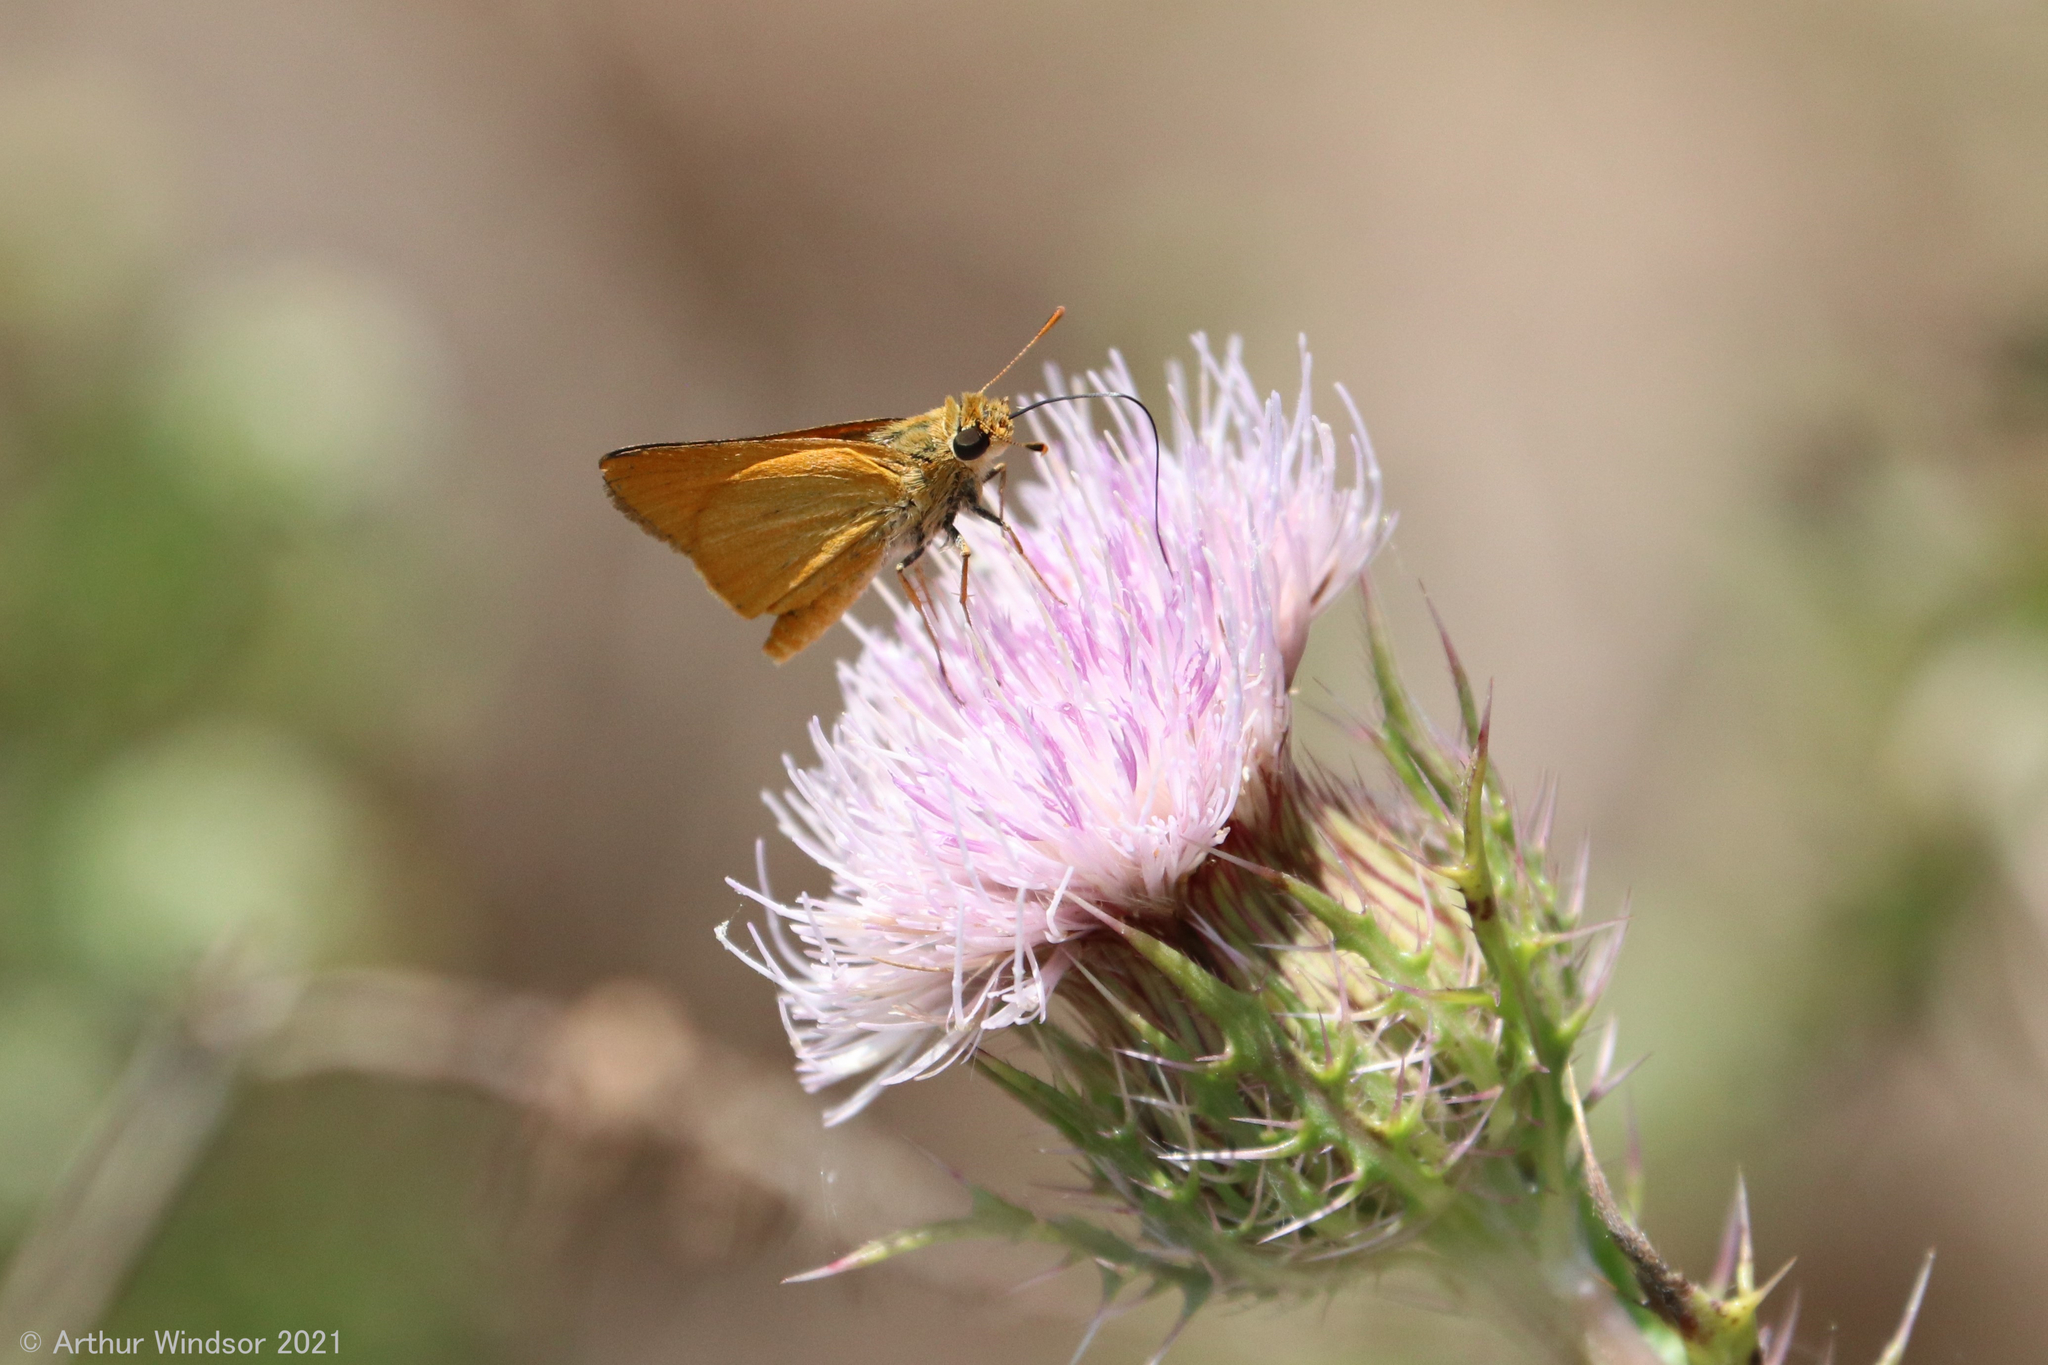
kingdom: Animalia
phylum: Arthropoda
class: Insecta
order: Lepidoptera
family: Hesperiidae
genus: Atrytone
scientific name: Atrytone delaware
